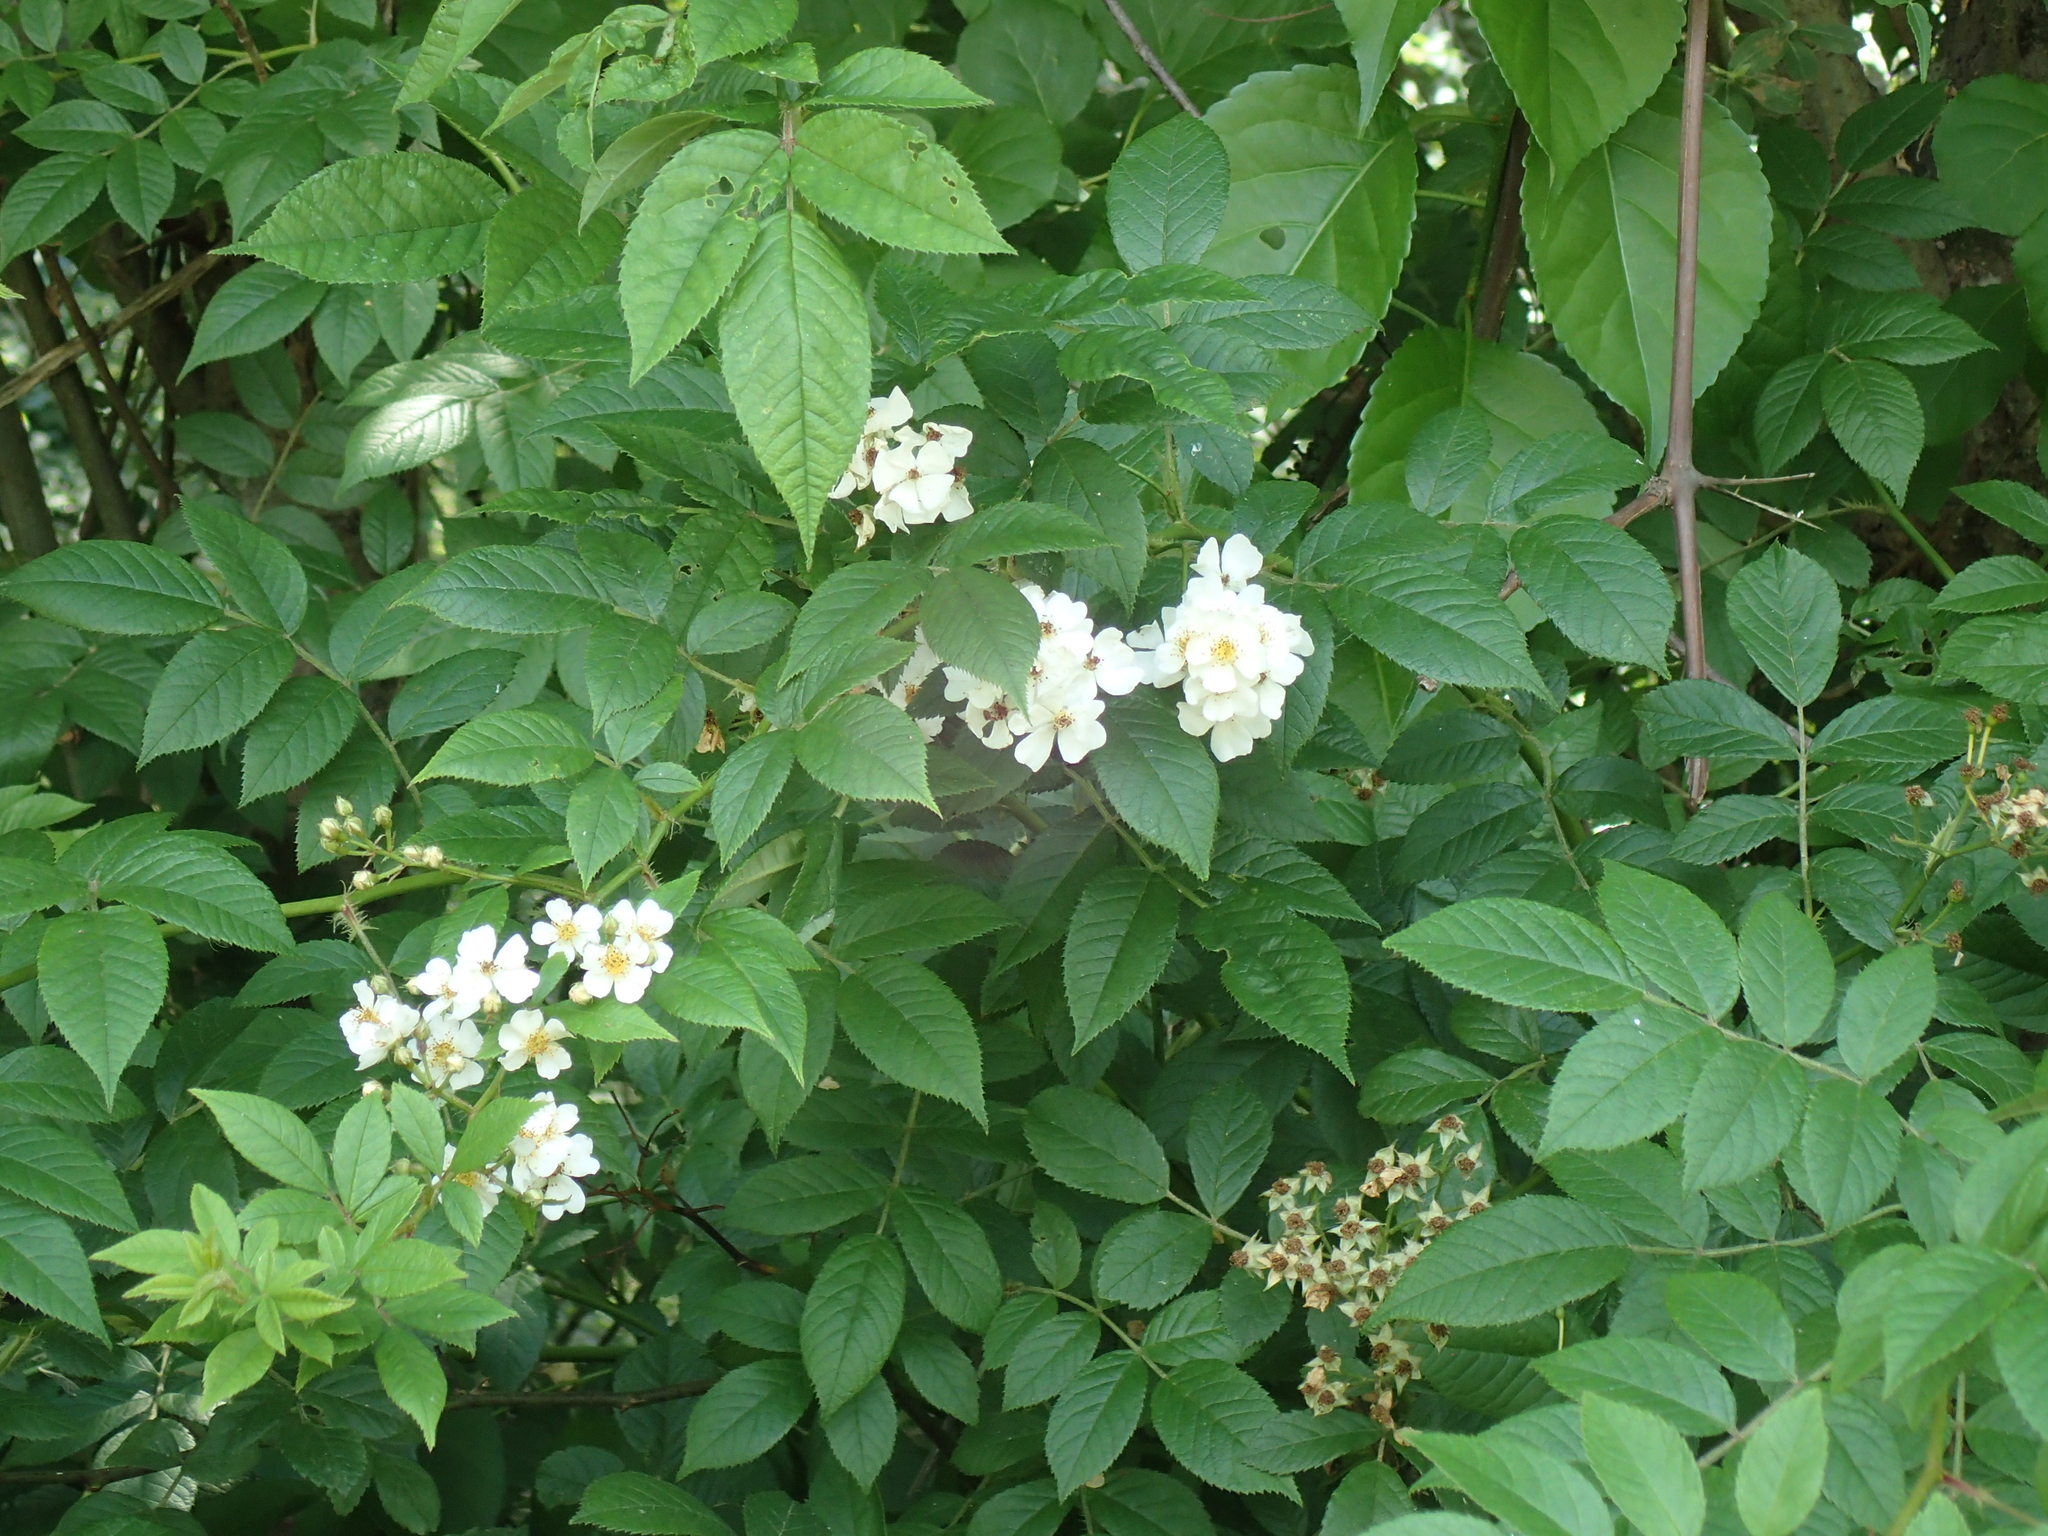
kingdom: Plantae
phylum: Tracheophyta
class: Magnoliopsida
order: Rosales
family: Rosaceae
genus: Rosa
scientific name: Rosa multiflora
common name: Multiflora rose
